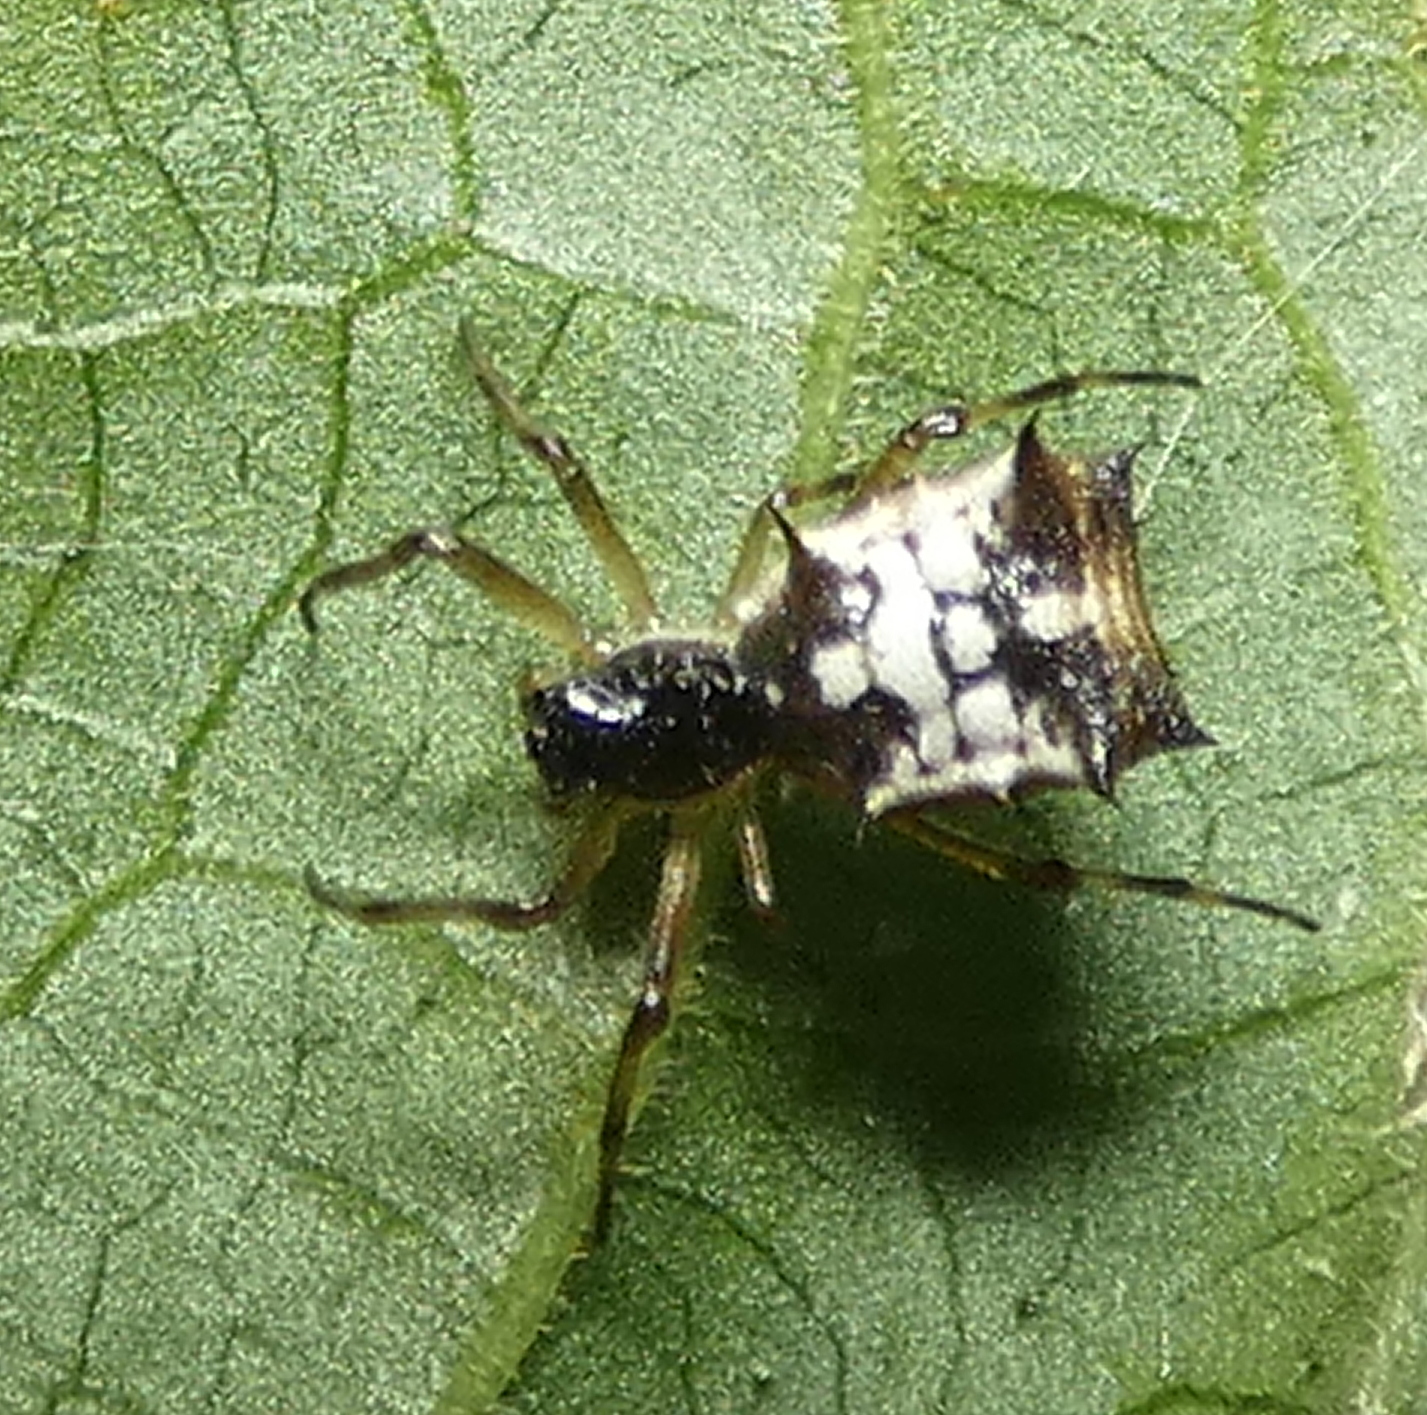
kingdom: Animalia
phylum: Arthropoda
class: Arachnida
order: Araneae
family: Araneidae
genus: Micrathena
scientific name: Micrathena picta
